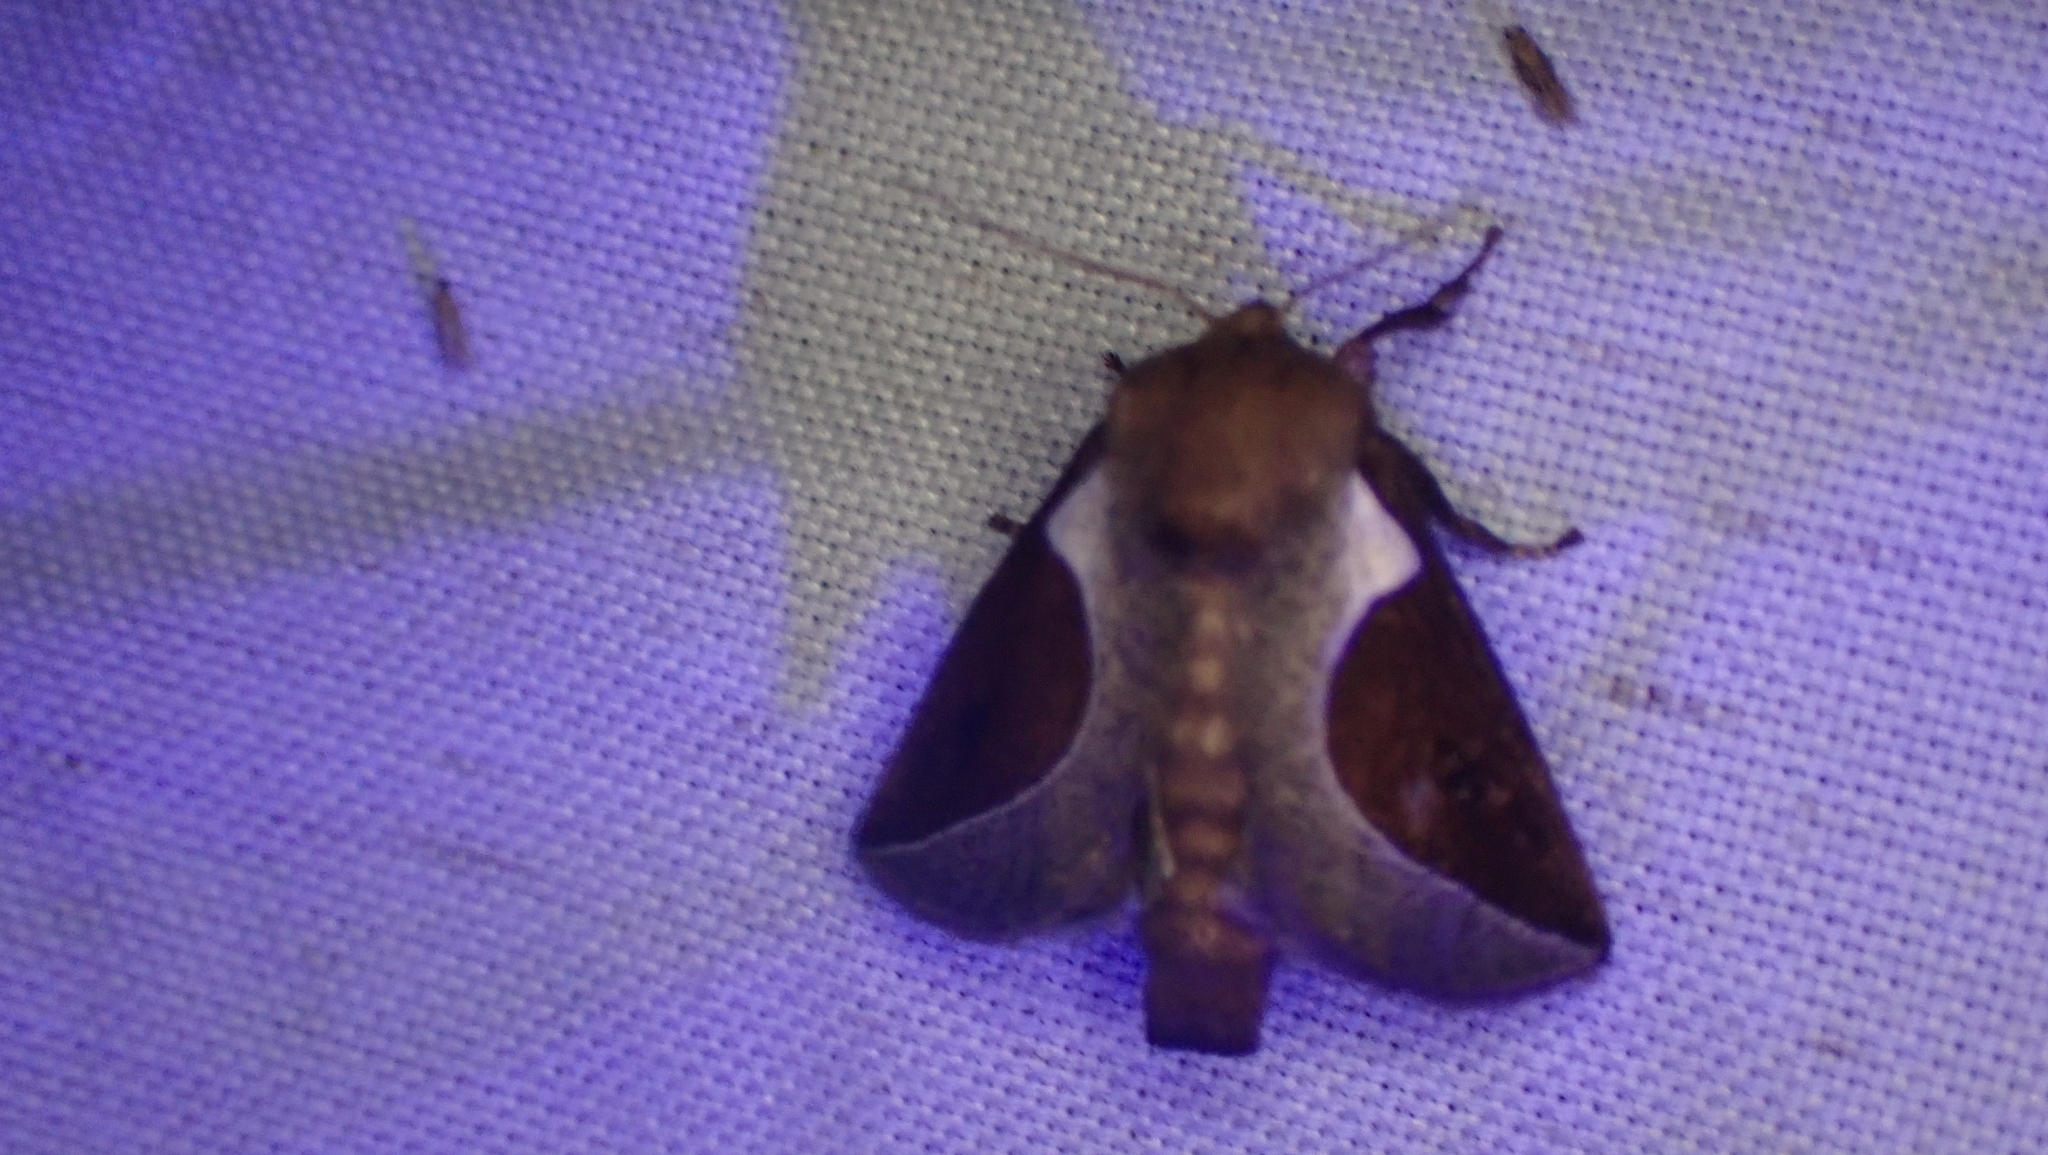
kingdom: Animalia
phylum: Arthropoda
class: Insecta
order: Lepidoptera
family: Limacodidae
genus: Prolimacodes
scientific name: Prolimacodes badia
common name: Skiff moth
